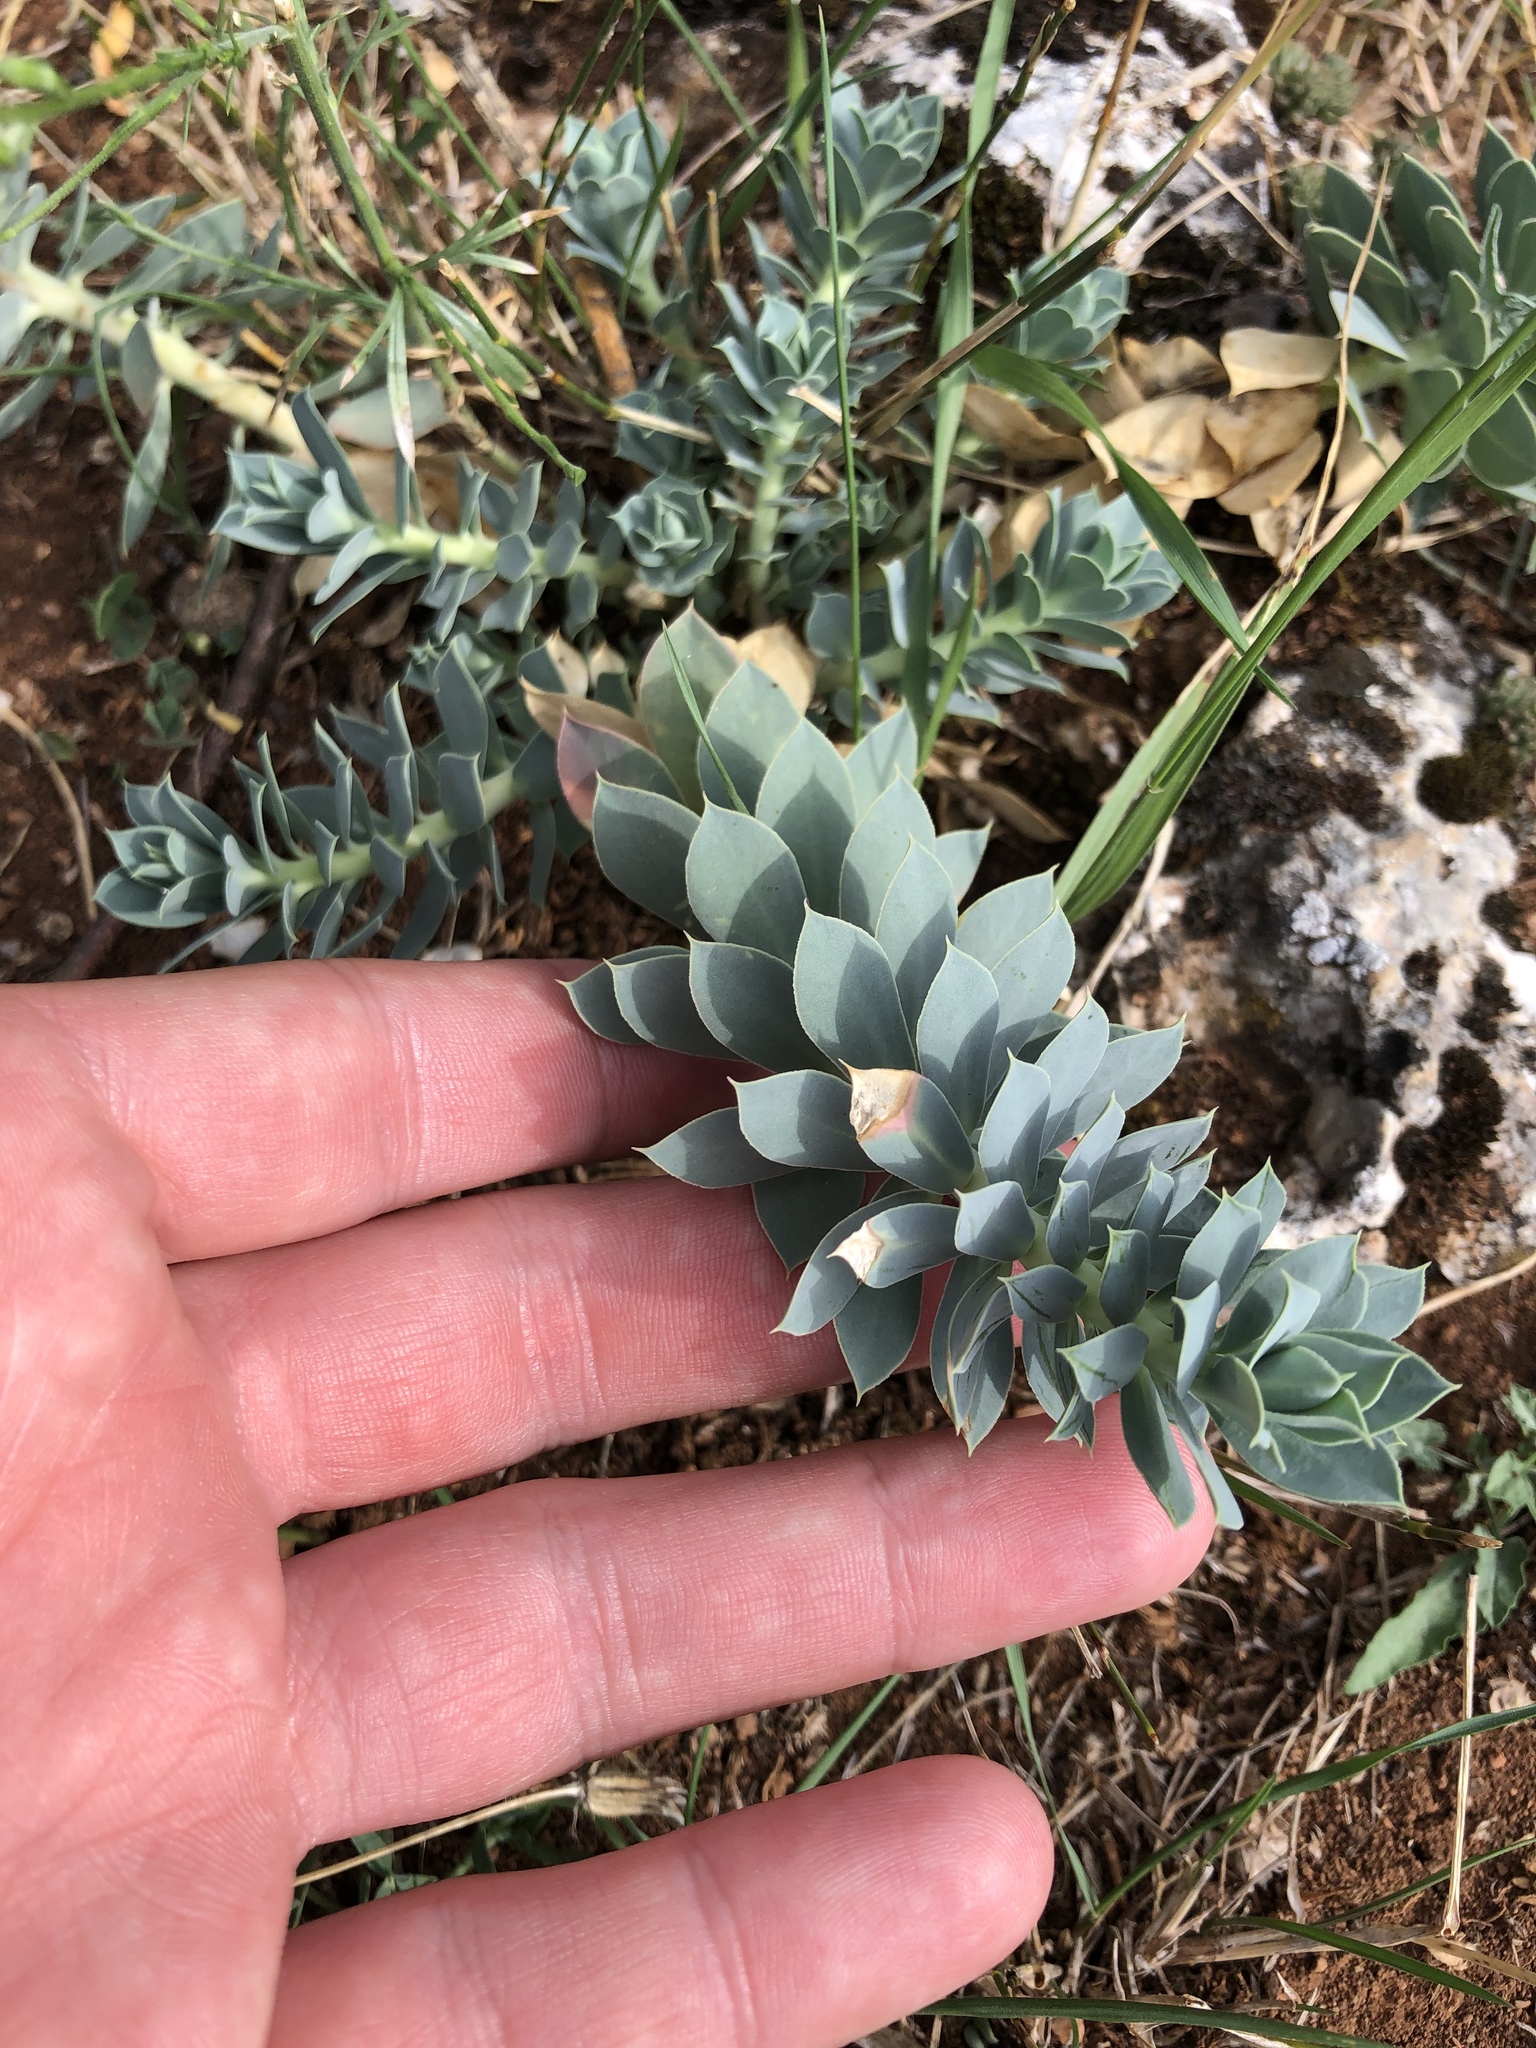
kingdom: Plantae
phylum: Tracheophyta
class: Magnoliopsida
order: Malpighiales
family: Euphorbiaceae
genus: Euphorbia
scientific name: Euphorbia myrsinites
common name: Myrtle spurge
